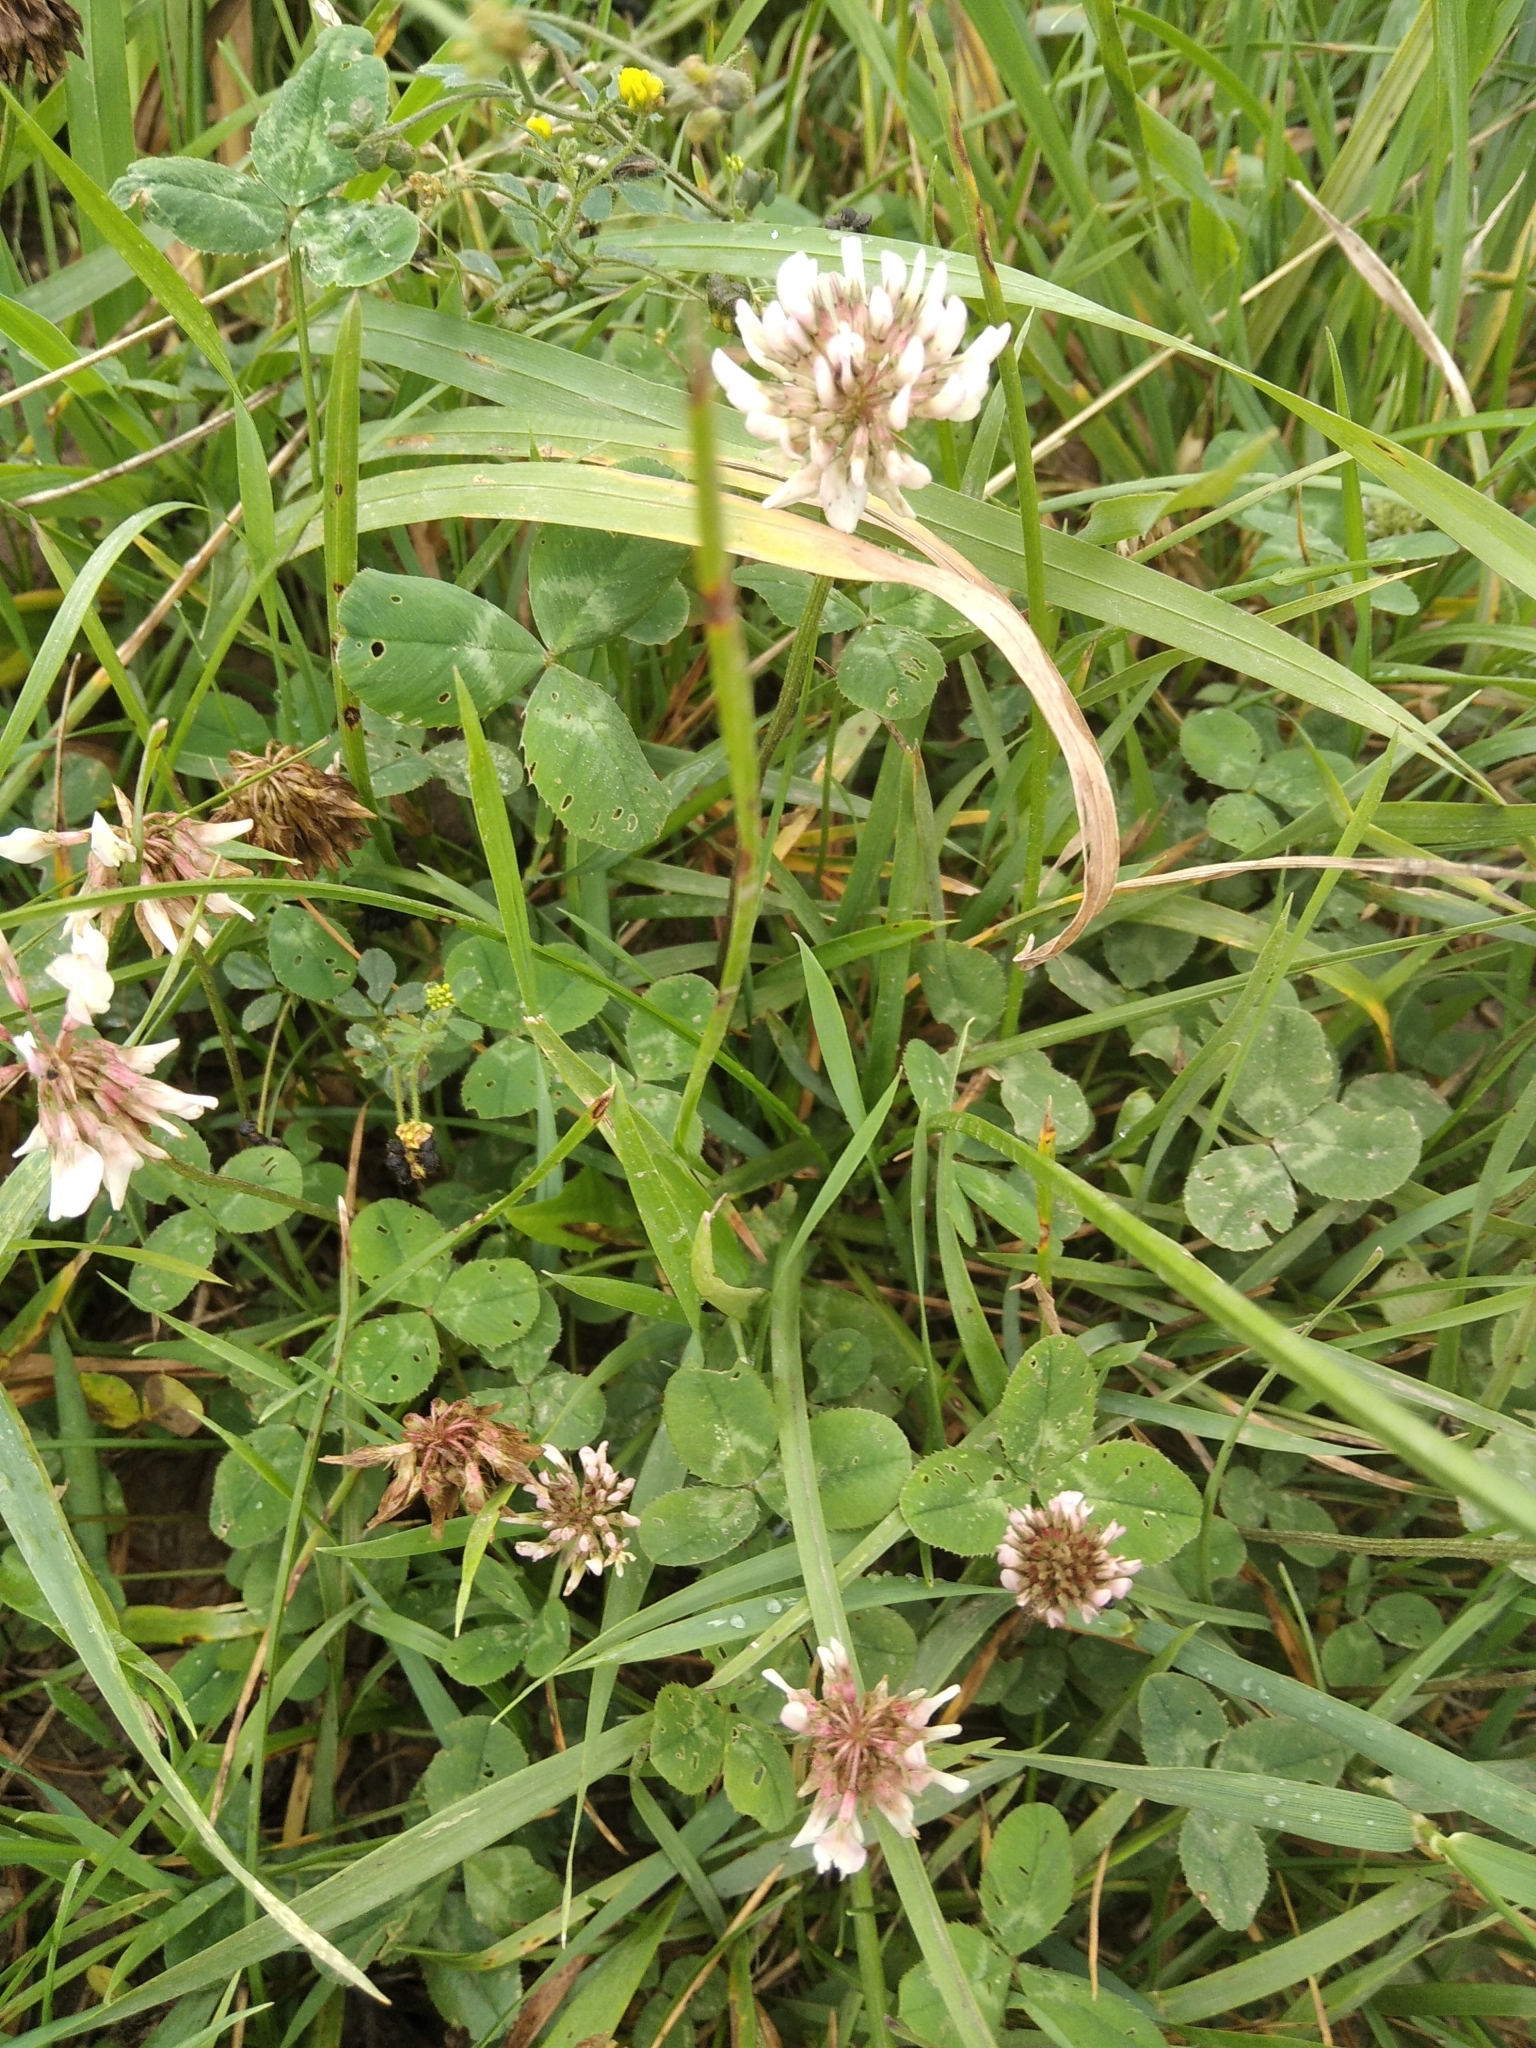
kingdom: Plantae
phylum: Tracheophyta
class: Magnoliopsida
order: Fabales
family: Fabaceae
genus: Trifolium
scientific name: Trifolium repens
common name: White clover
